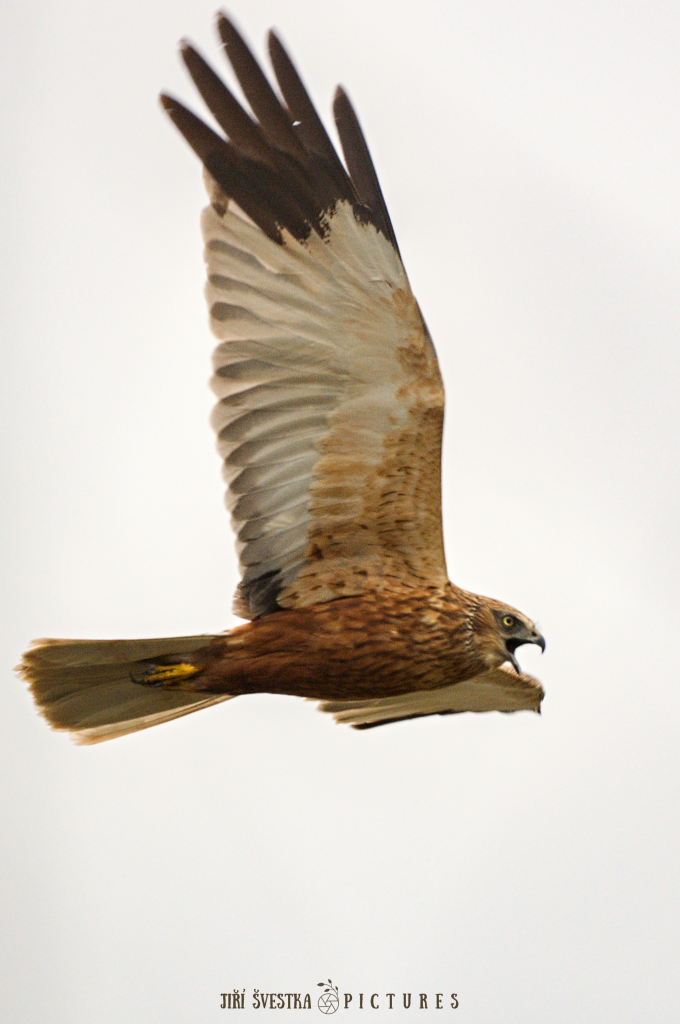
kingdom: Animalia
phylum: Chordata
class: Aves
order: Accipitriformes
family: Accipitridae
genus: Circus
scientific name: Circus aeruginosus
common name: Western marsh harrier
